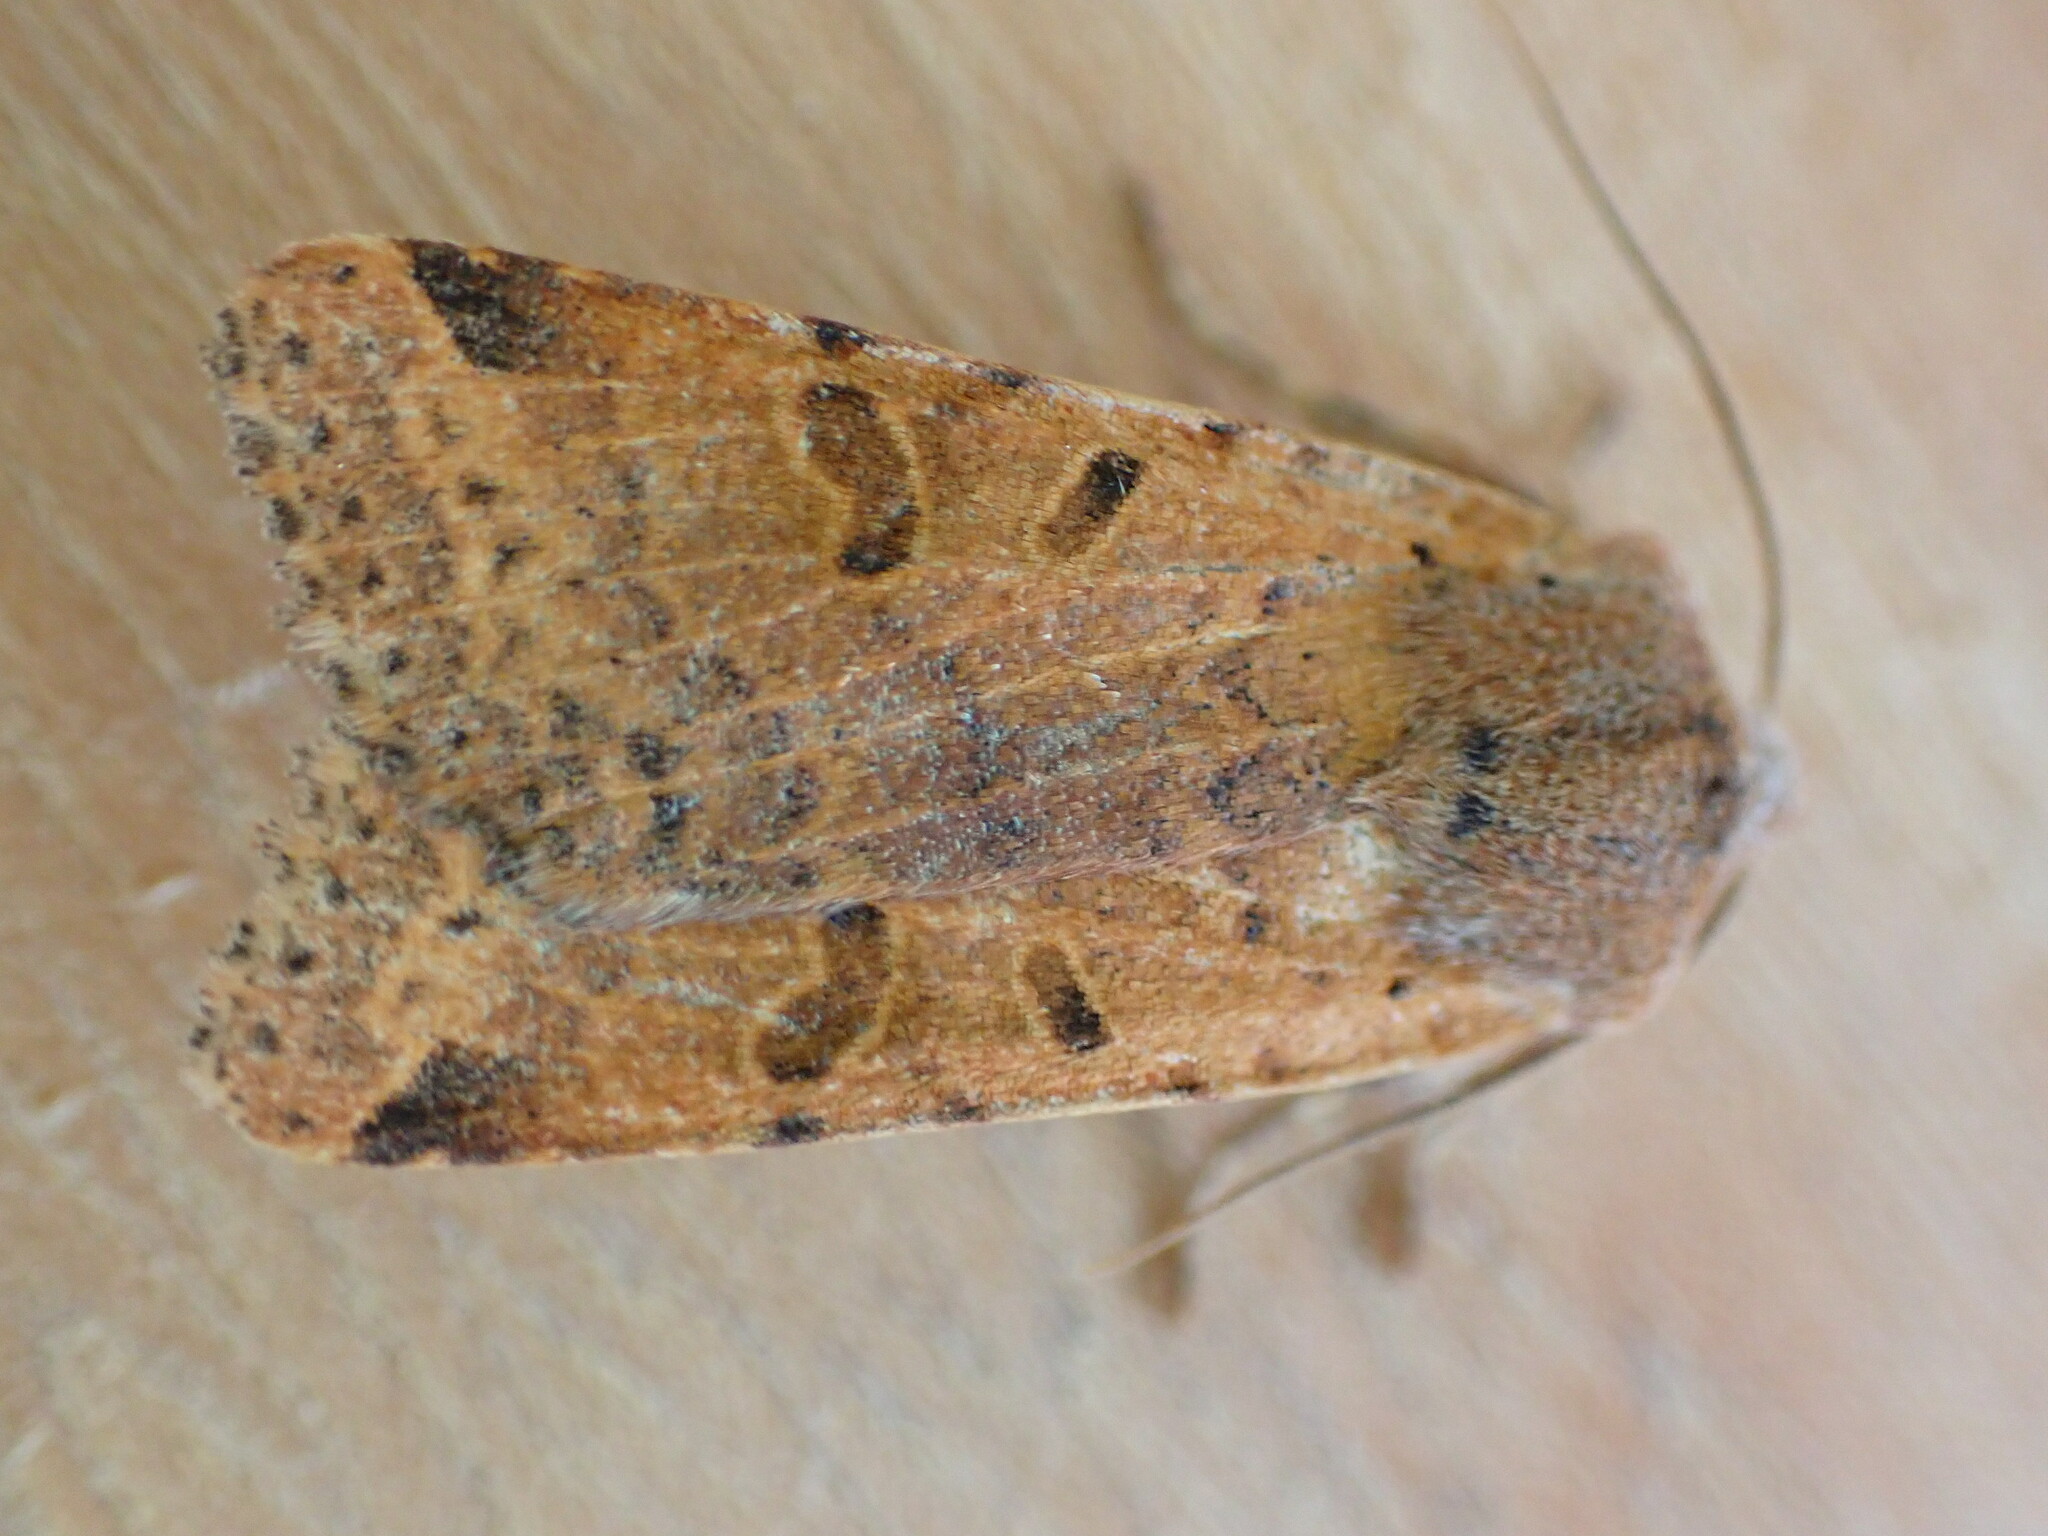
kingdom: Animalia
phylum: Arthropoda
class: Insecta
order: Lepidoptera
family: Noctuidae
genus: Agrochola
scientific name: Agrochola lychnidis
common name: Beaded chestnut
